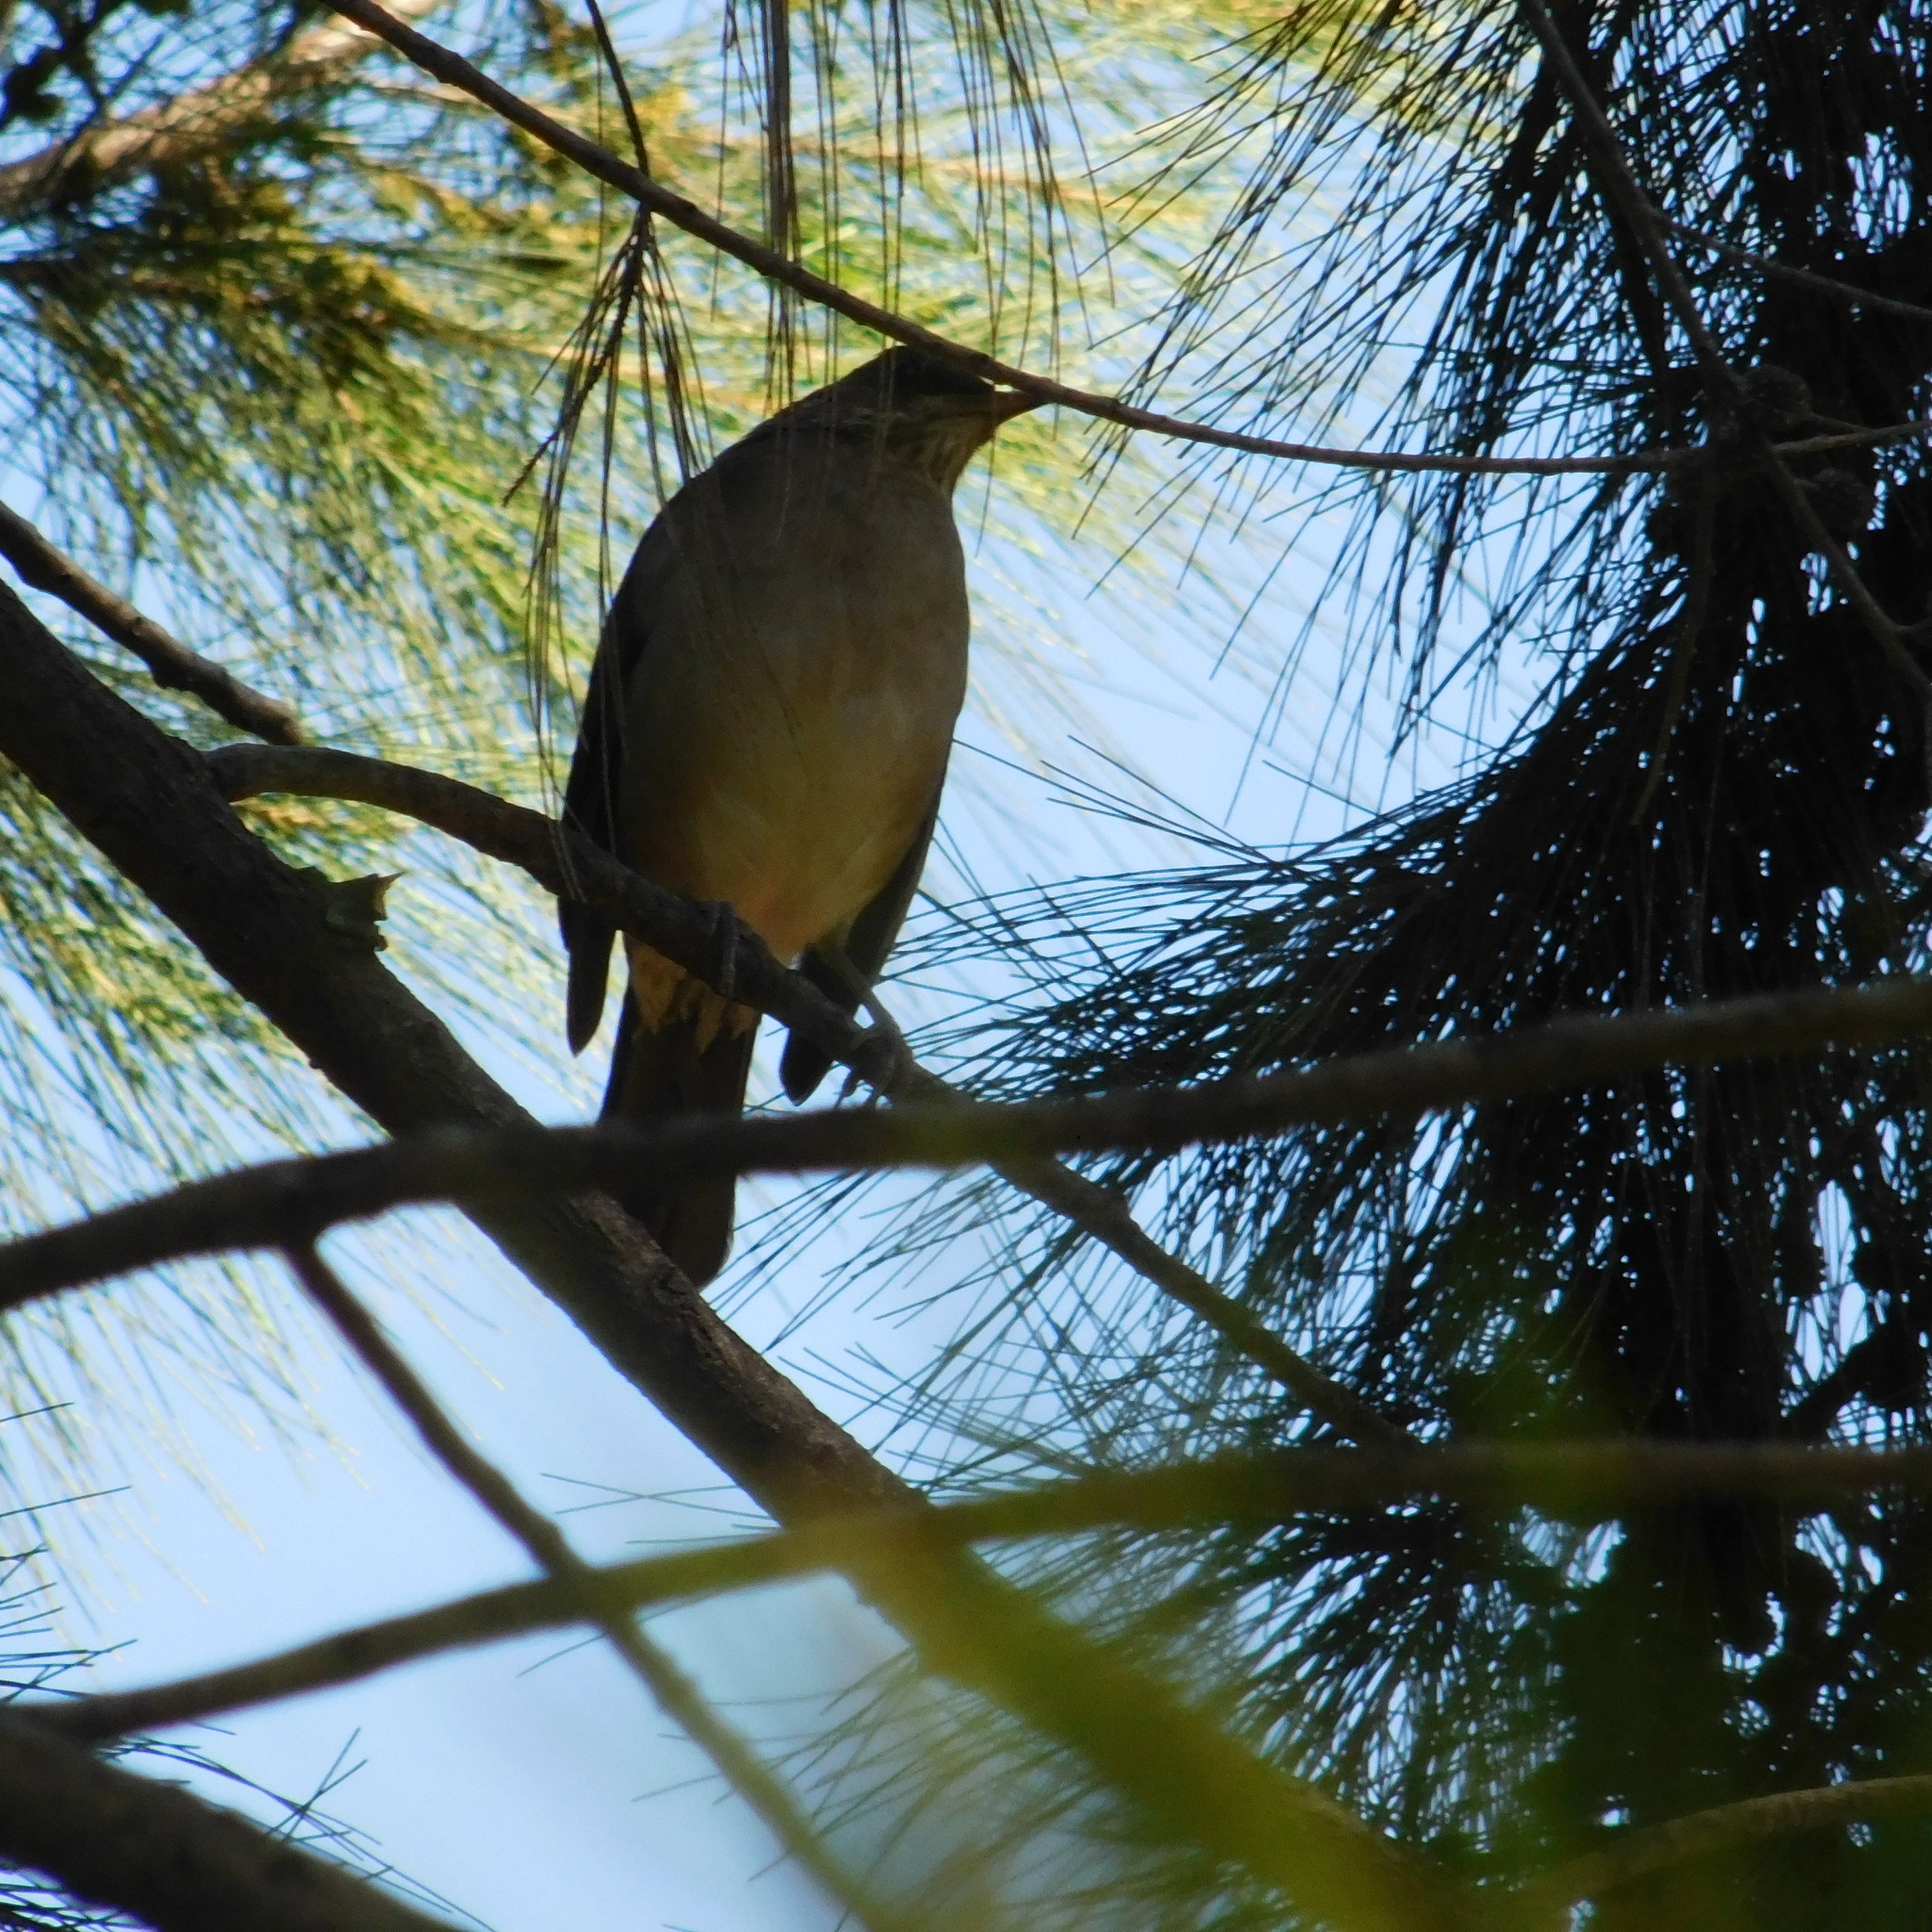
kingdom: Animalia
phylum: Chordata
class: Aves
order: Passeriformes
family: Turdidae
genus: Turdus
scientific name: Turdus amaurochalinus
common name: Creamy-bellied thrush
